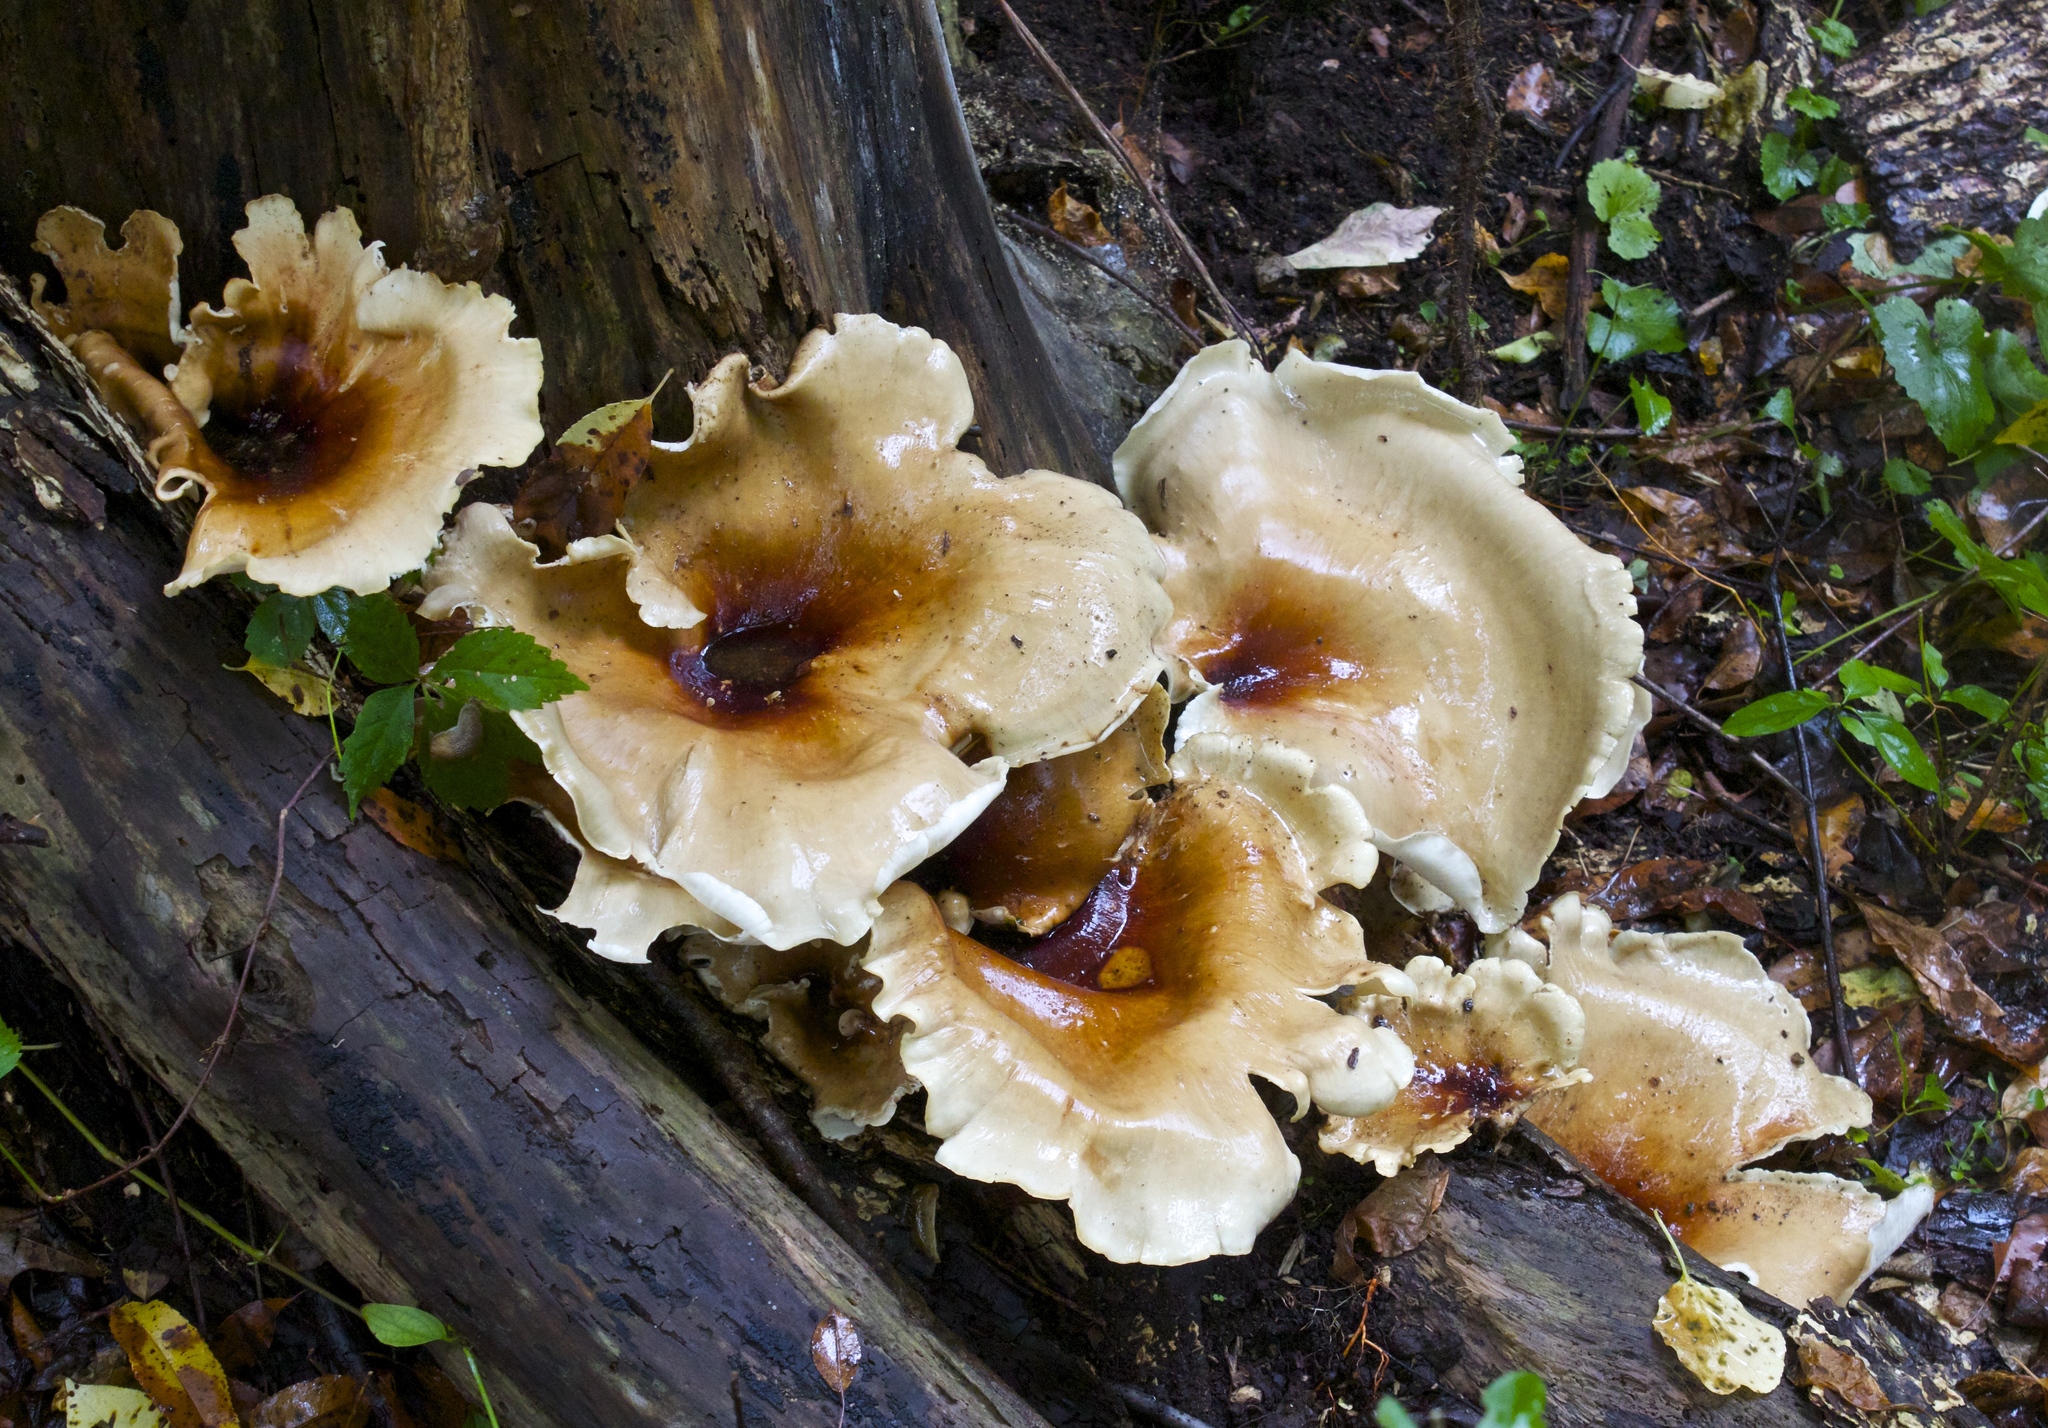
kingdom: Fungi
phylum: Basidiomycota
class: Agaricomycetes
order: Polyporales
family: Polyporaceae
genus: Picipes
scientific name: Picipes badius
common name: Bay polypore
